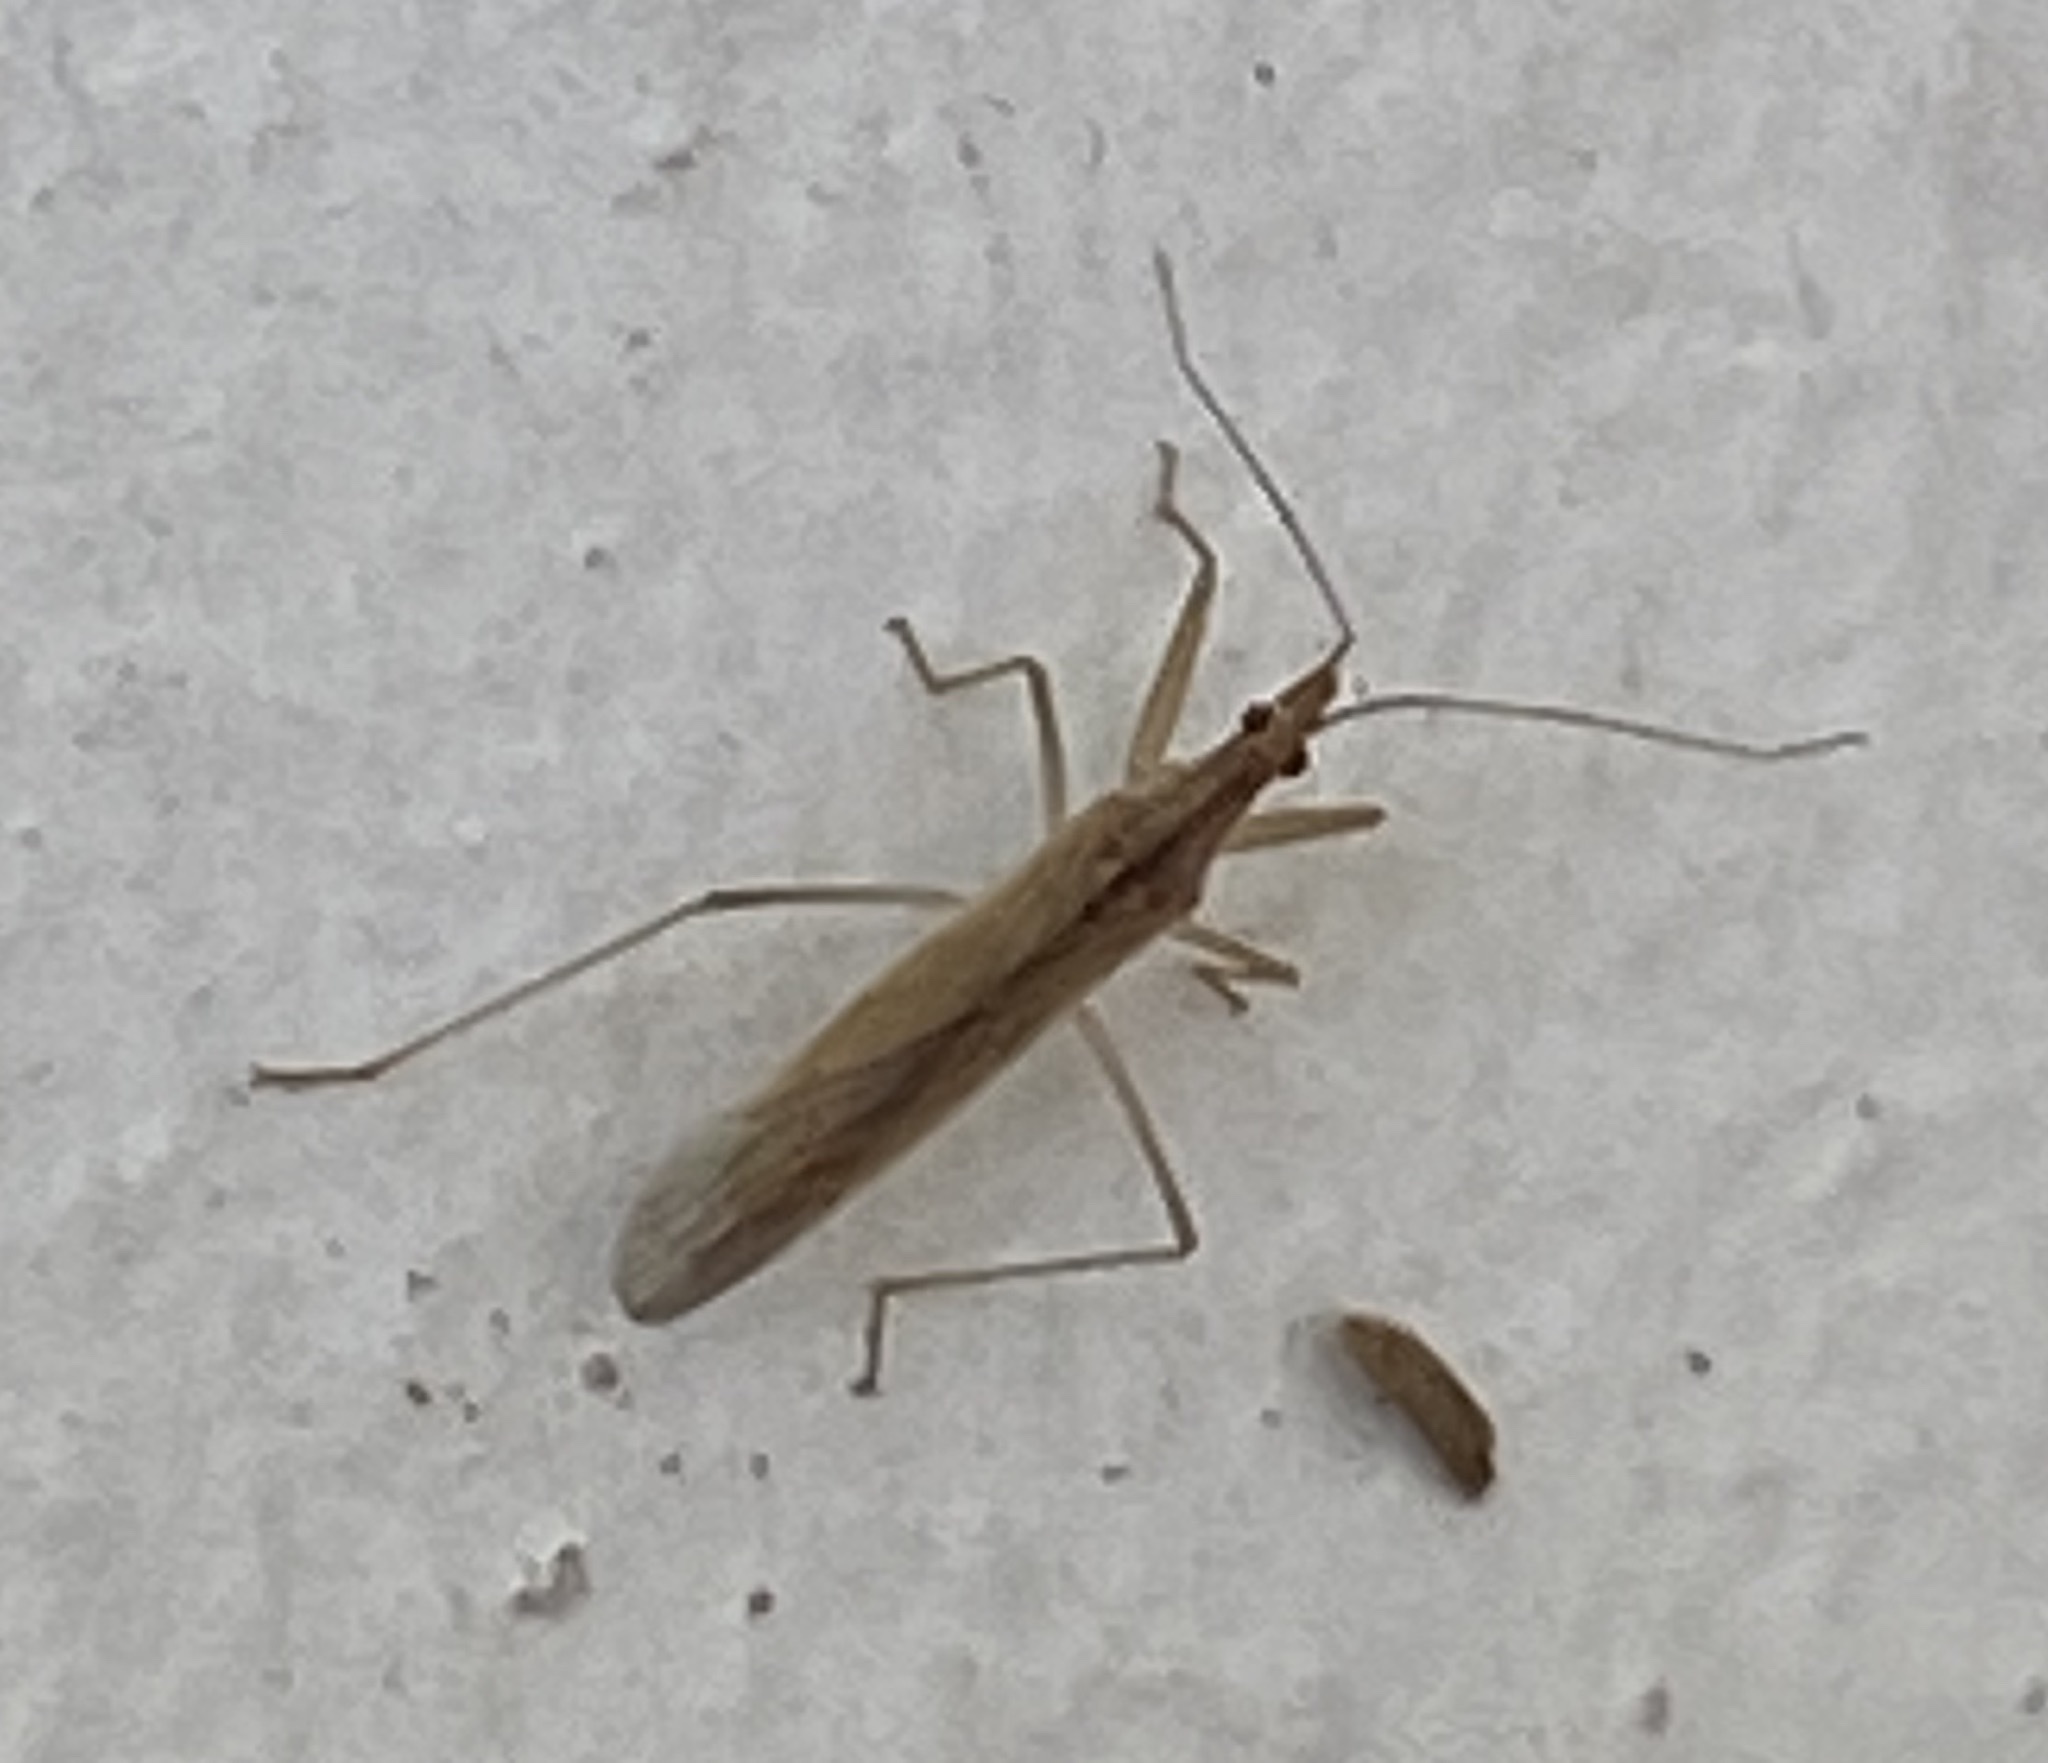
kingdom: Animalia
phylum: Arthropoda
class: Insecta
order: Hemiptera
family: Nabidae
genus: Nabis
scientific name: Nabis capsiformis
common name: Pale damsel bug
